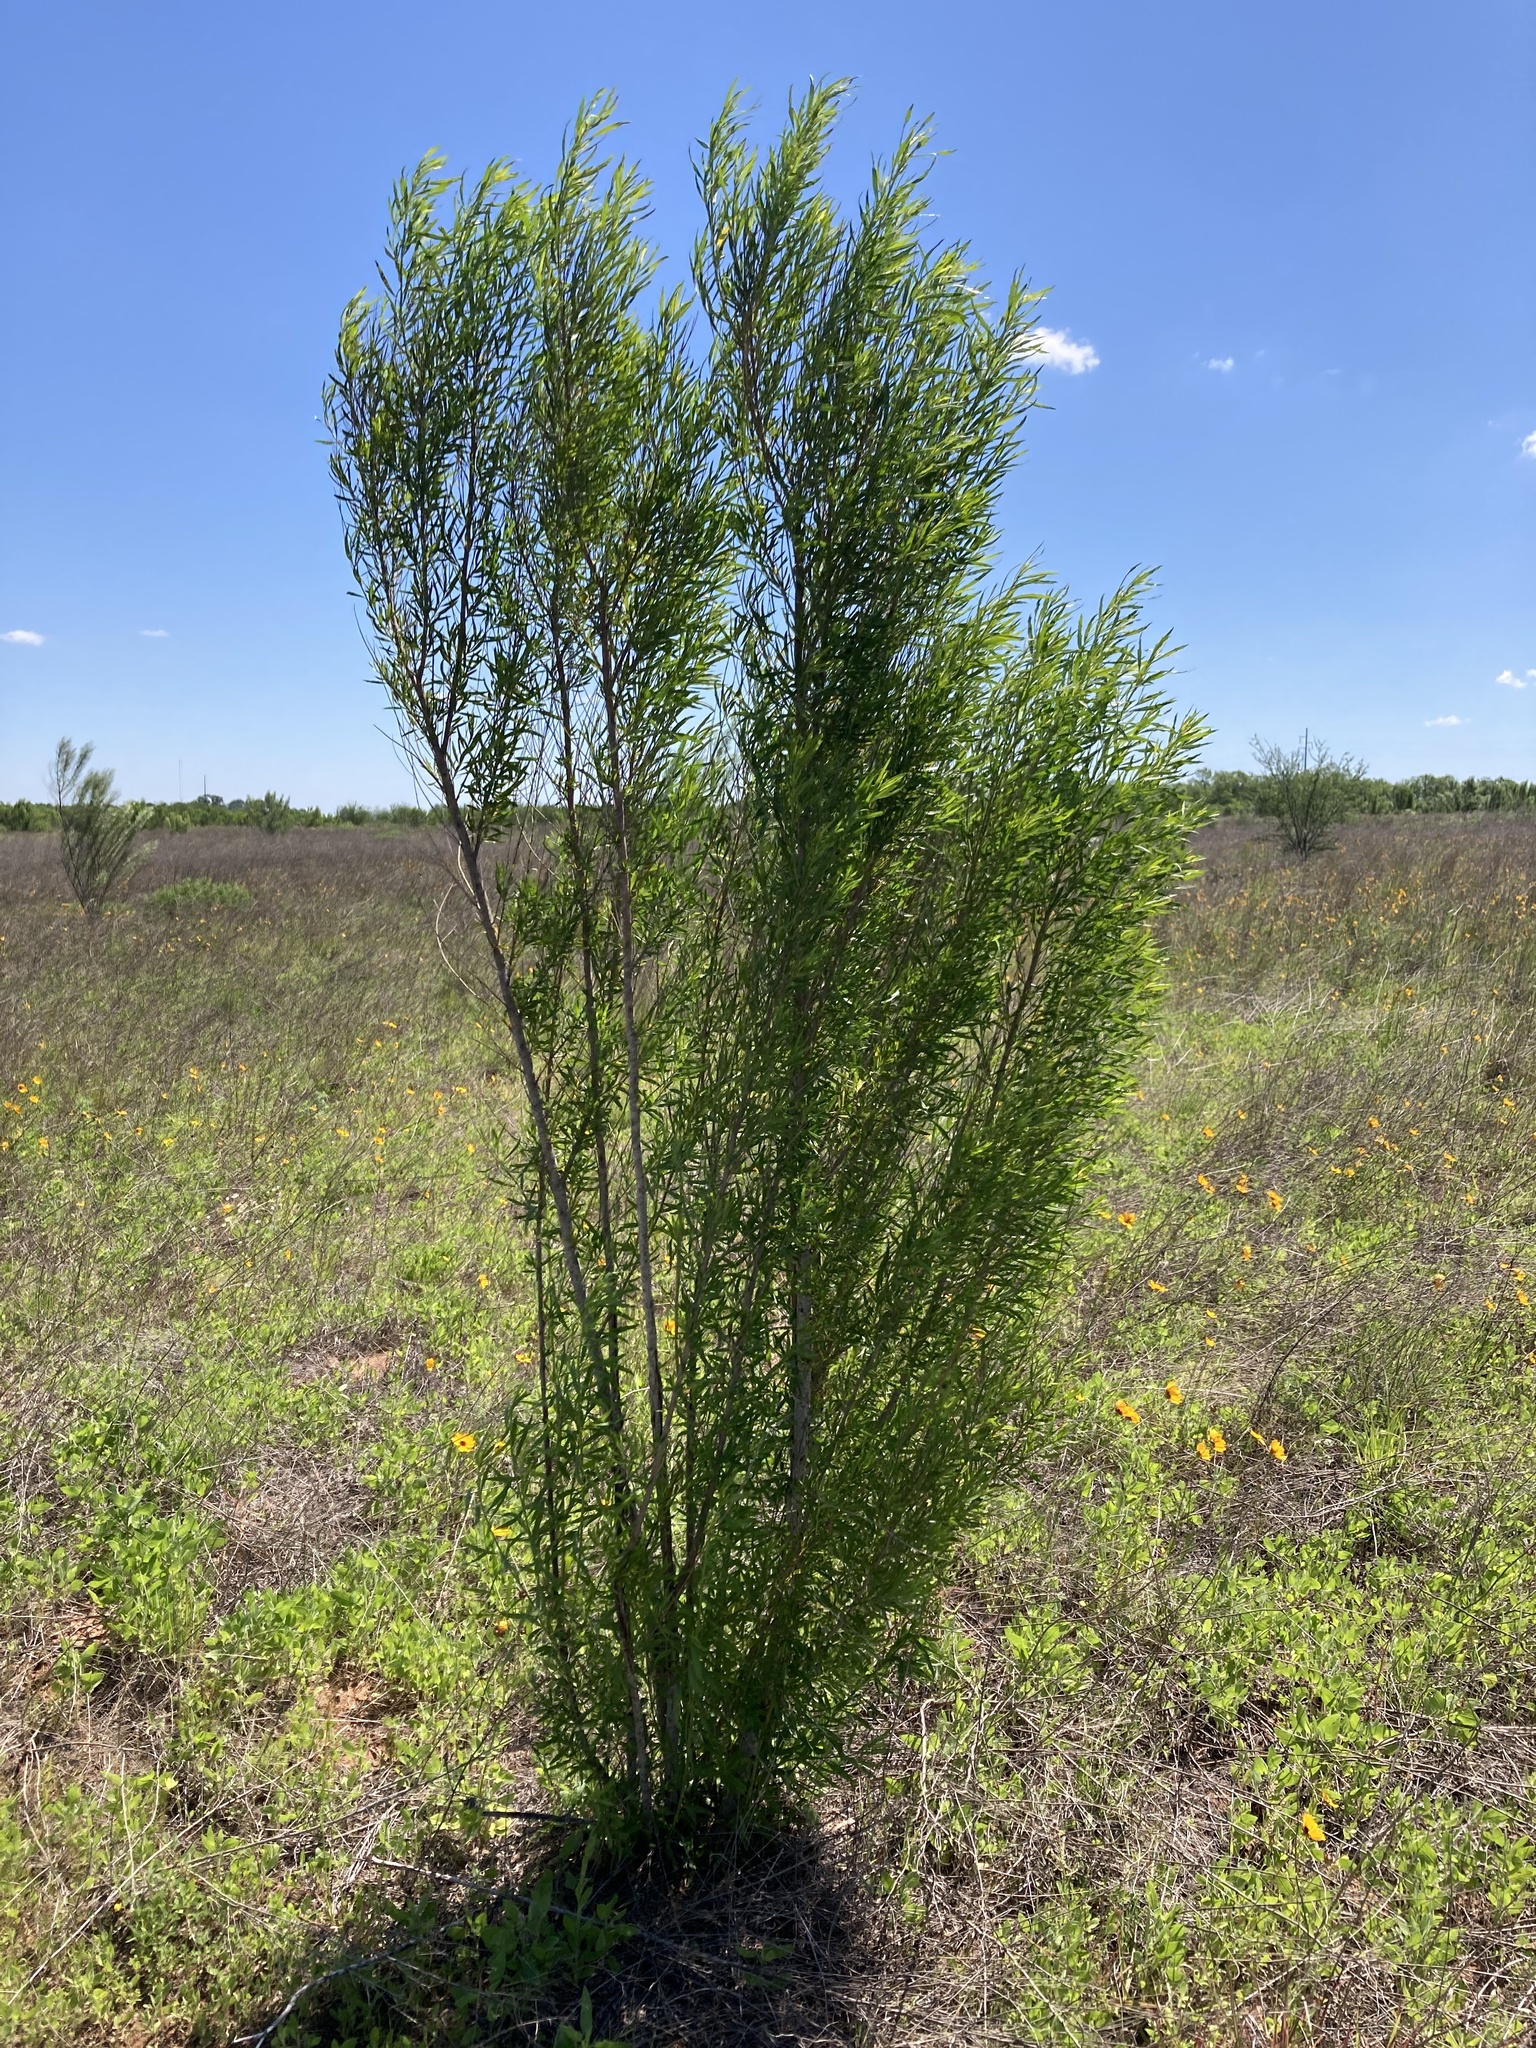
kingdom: Plantae
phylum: Tracheophyta
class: Magnoliopsida
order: Asterales
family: Asteraceae
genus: Baccharis
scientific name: Baccharis neglecta
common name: Roosevelt-weed
